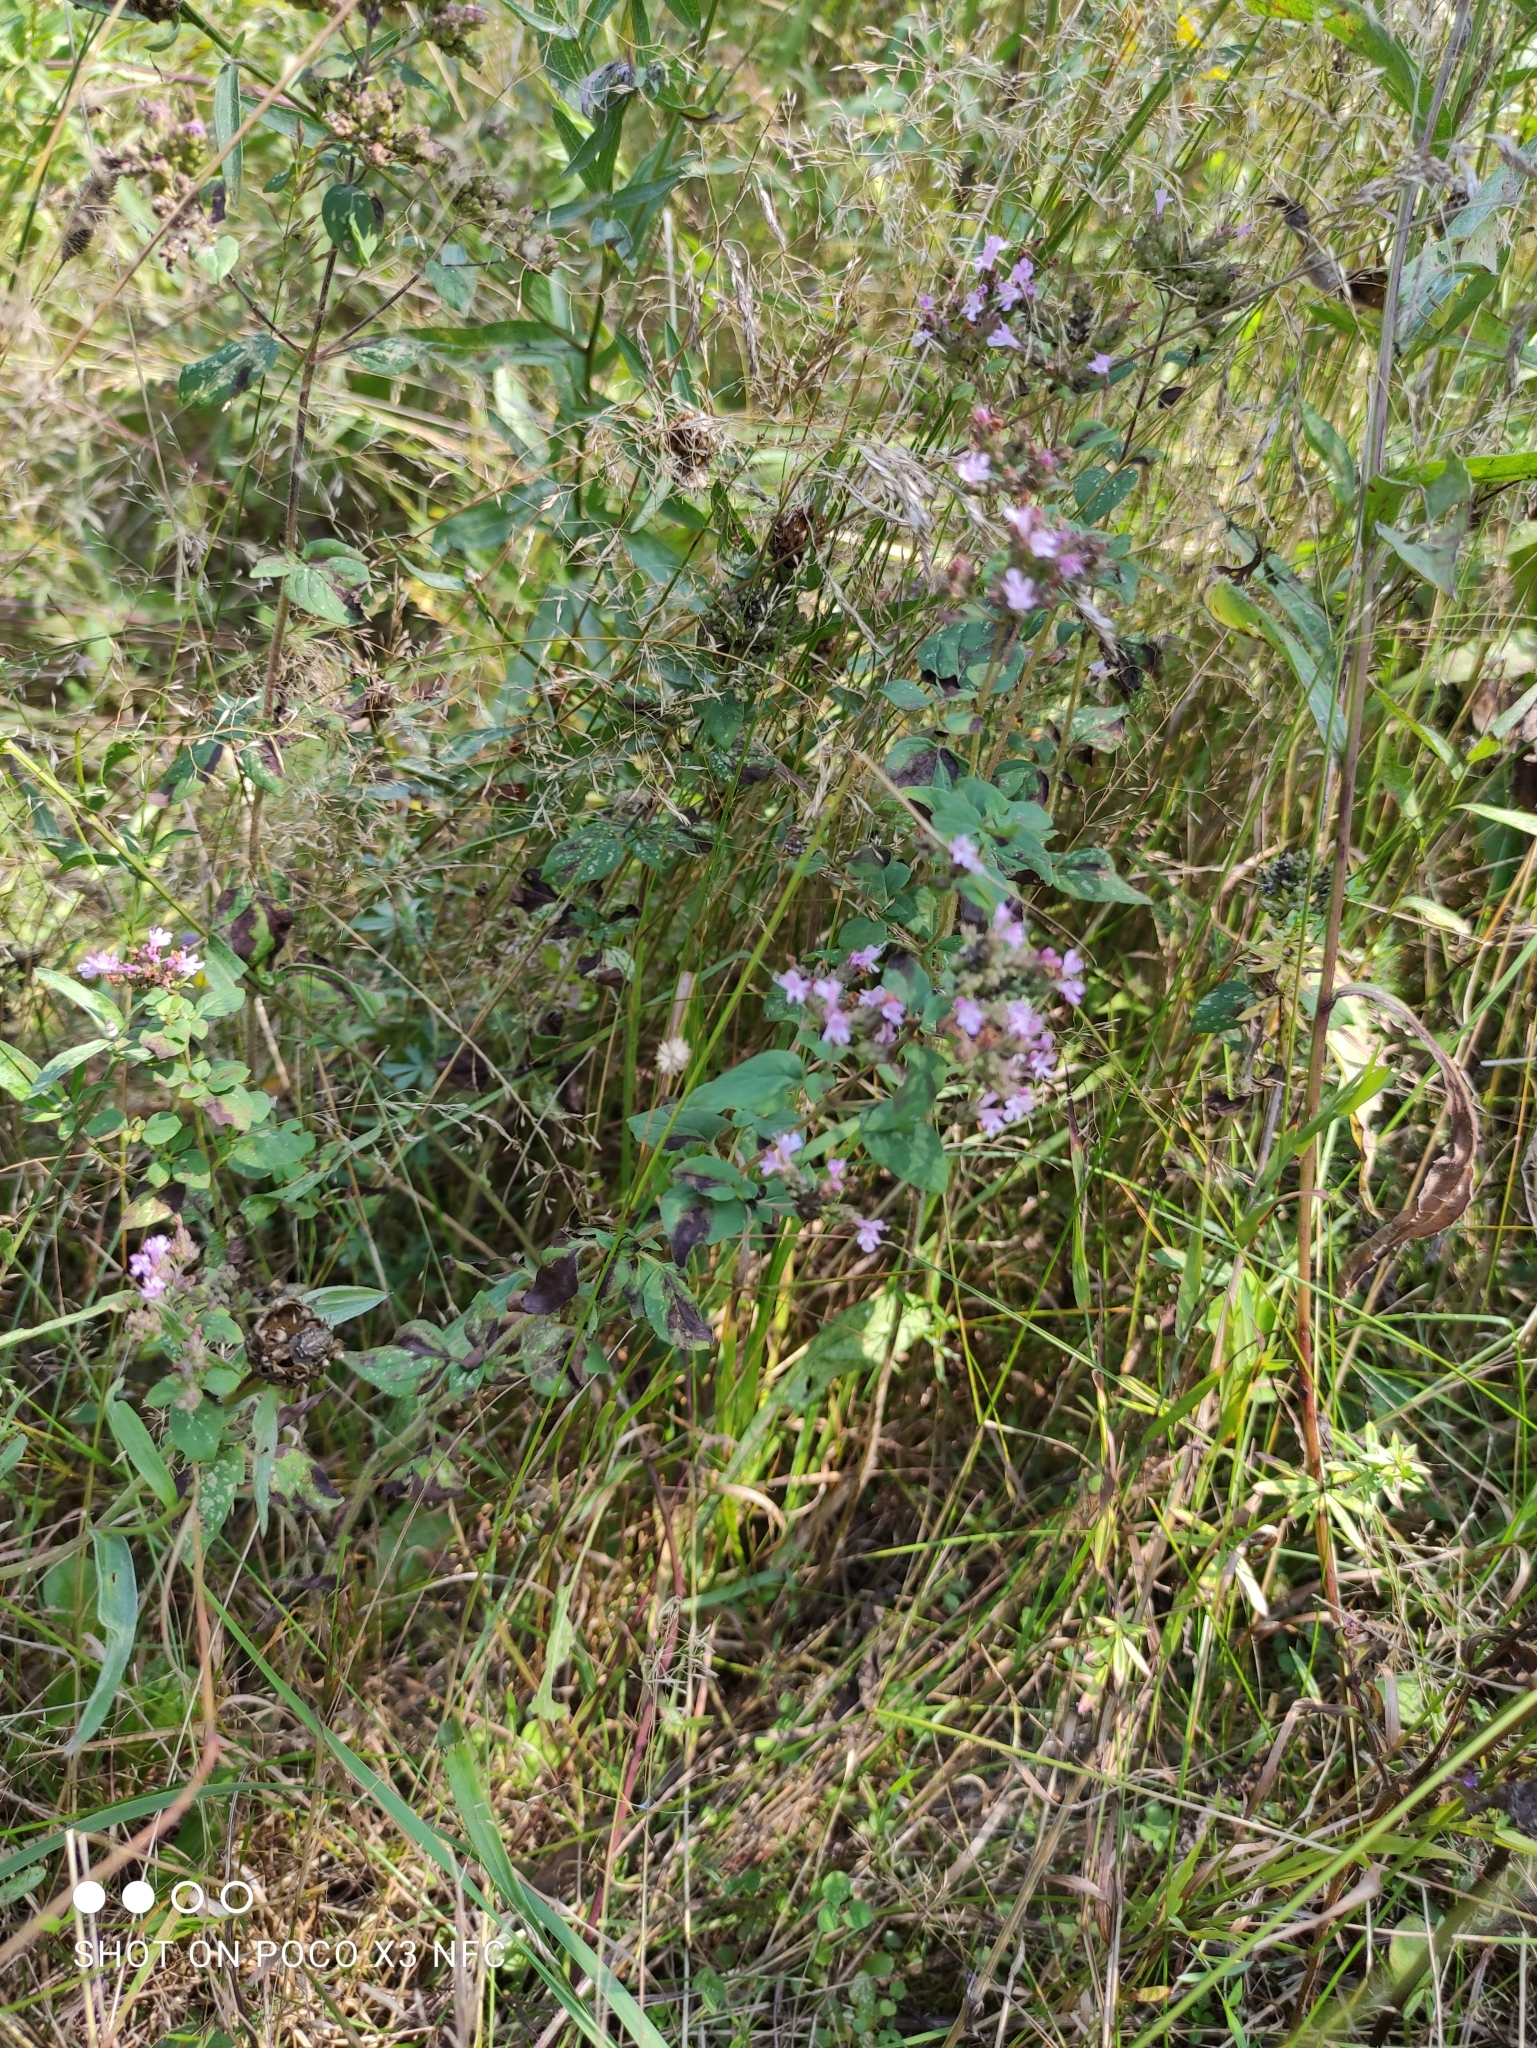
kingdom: Plantae
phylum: Tracheophyta
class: Magnoliopsida
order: Lamiales
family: Lamiaceae
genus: Origanum
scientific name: Origanum vulgare
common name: Wild marjoram
